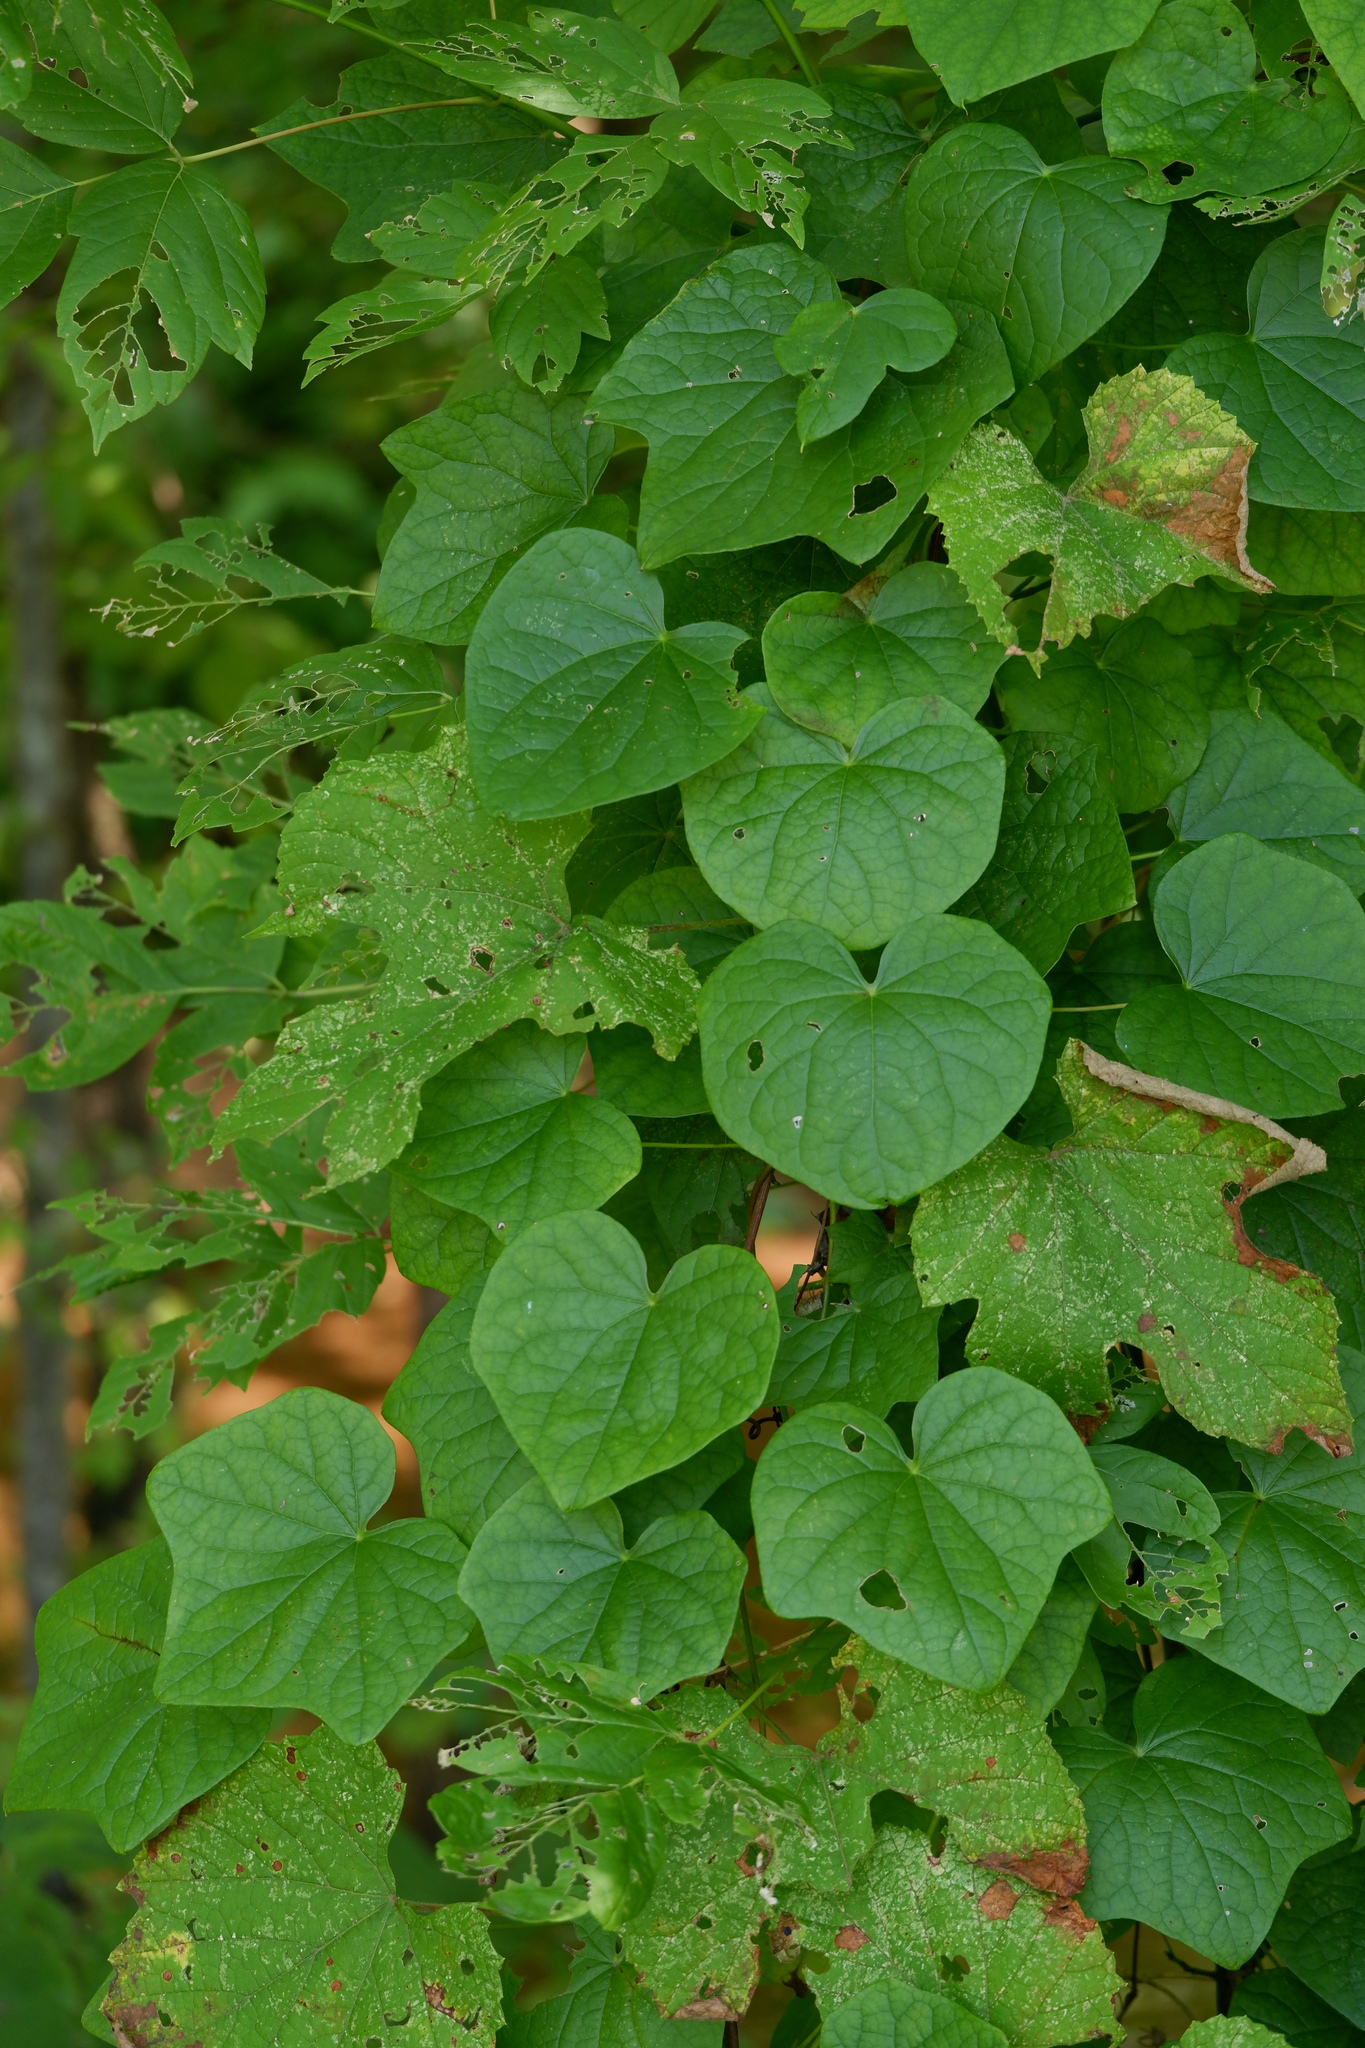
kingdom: Plantae
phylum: Tracheophyta
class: Magnoliopsida
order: Ranunculales
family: Menispermaceae
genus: Menispermum
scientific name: Menispermum canadense
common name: Moonseed
